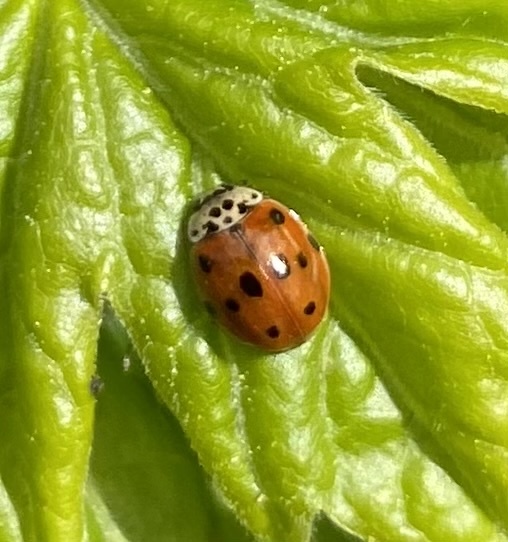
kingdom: Animalia
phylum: Arthropoda
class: Insecta
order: Coleoptera
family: Coccinellidae
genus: Adalia
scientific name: Adalia decempunctata
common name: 10-spot ladybird
